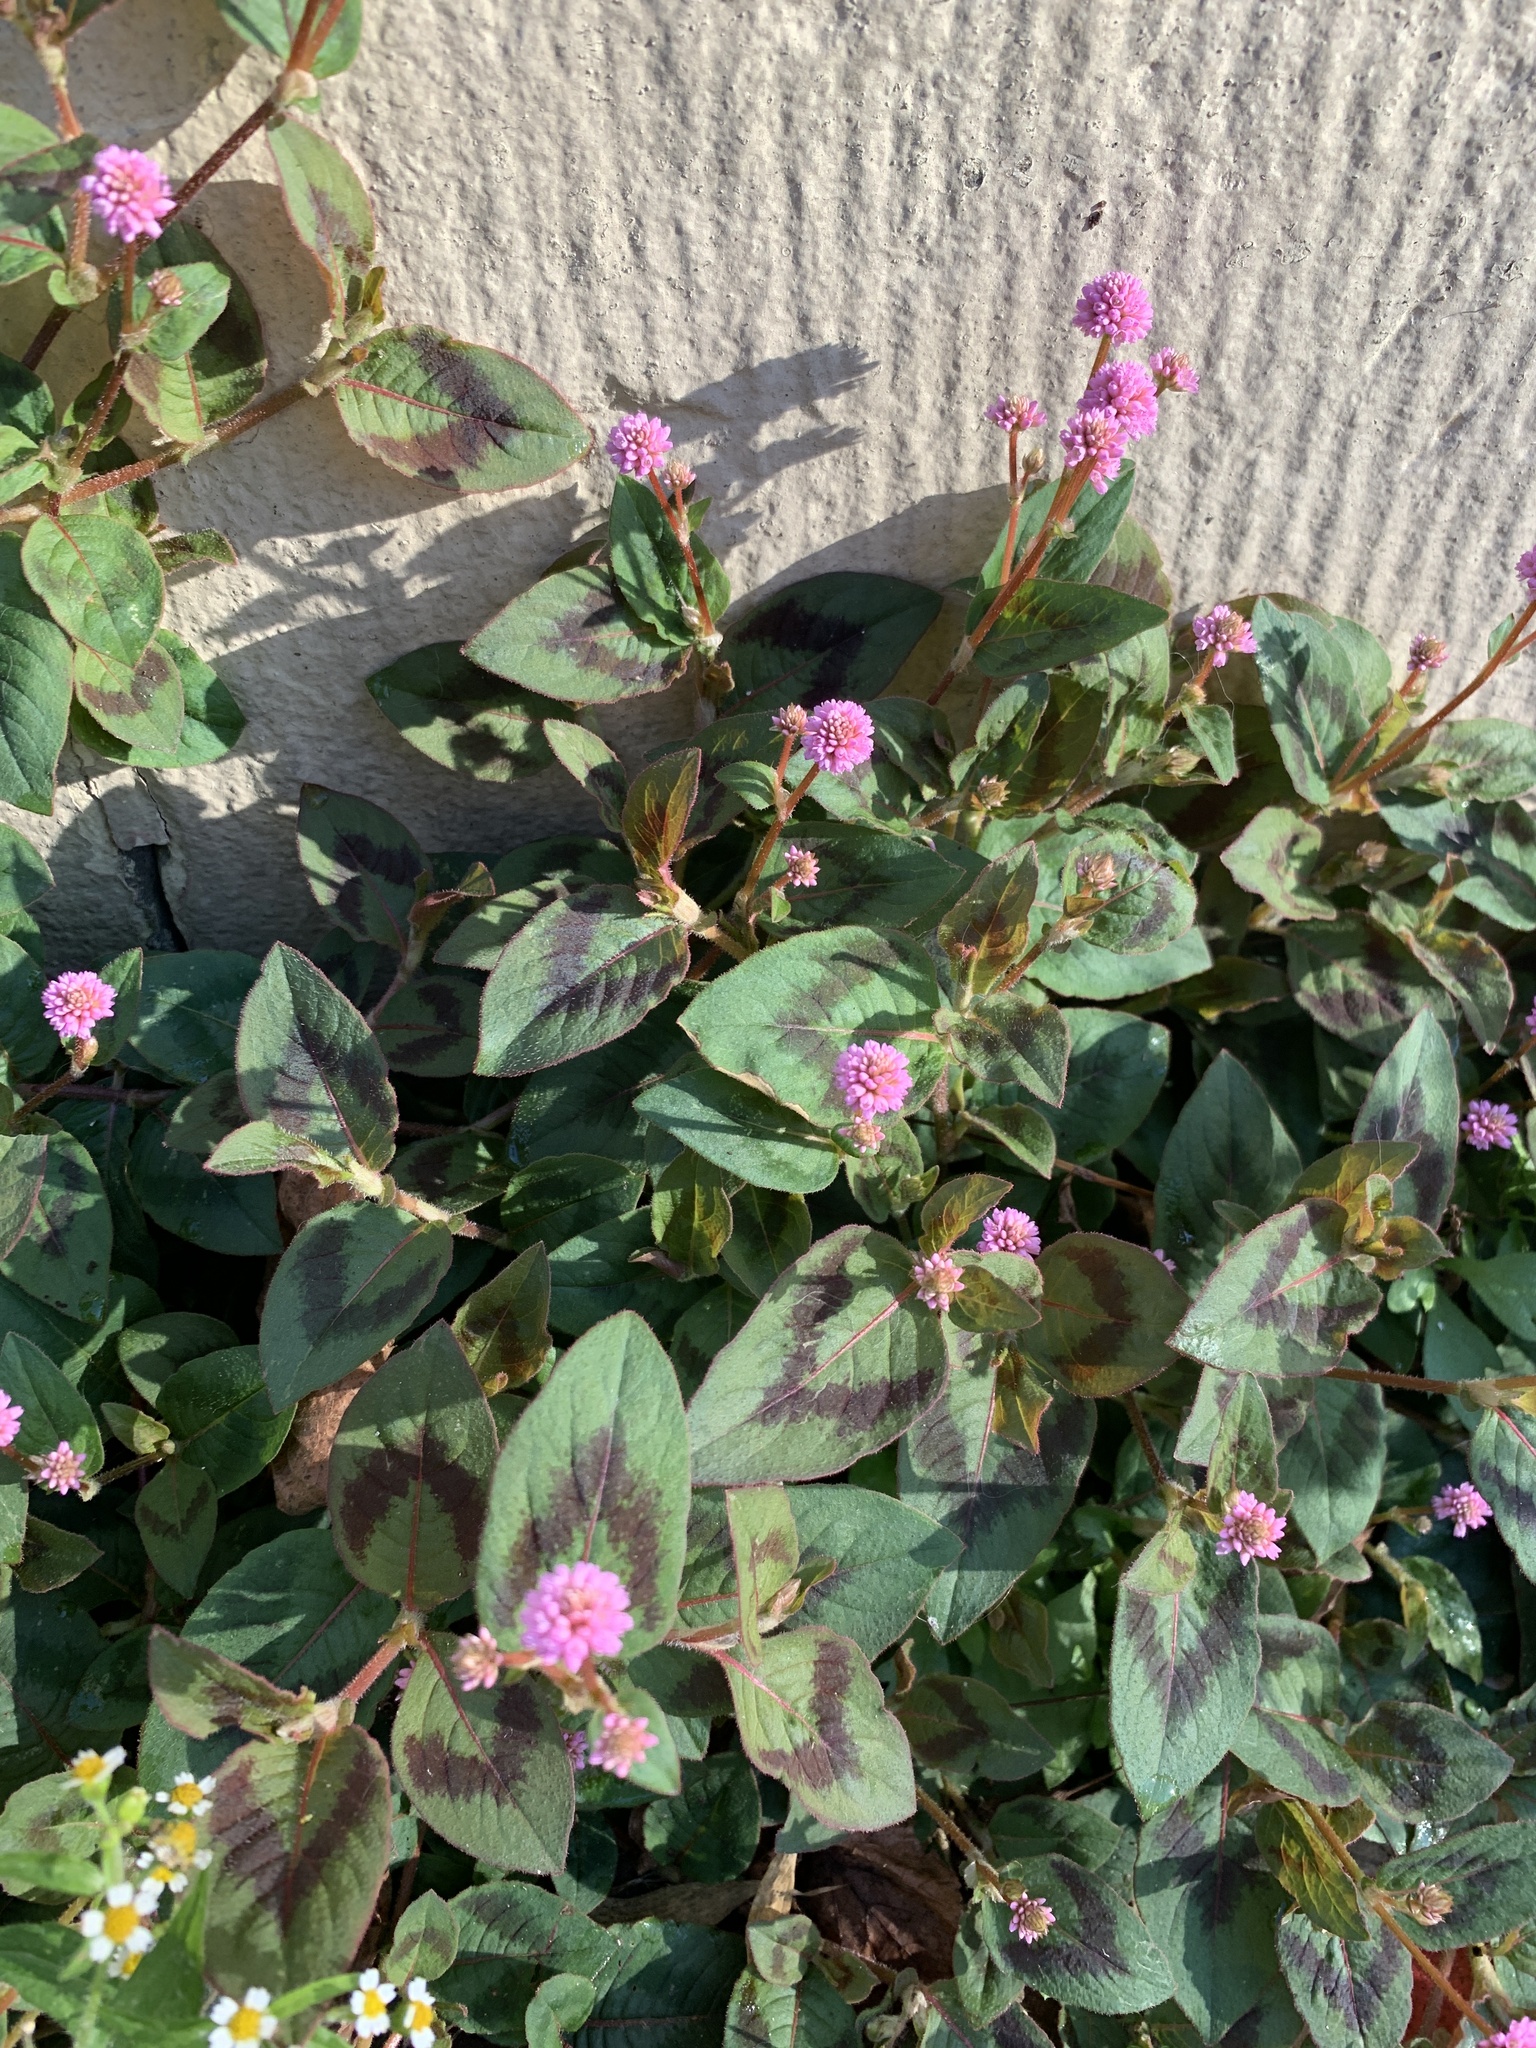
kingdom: Plantae
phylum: Tracheophyta
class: Magnoliopsida
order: Caryophyllales
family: Polygonaceae
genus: Persicaria
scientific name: Persicaria capitata
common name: Pinkhead smartweed
